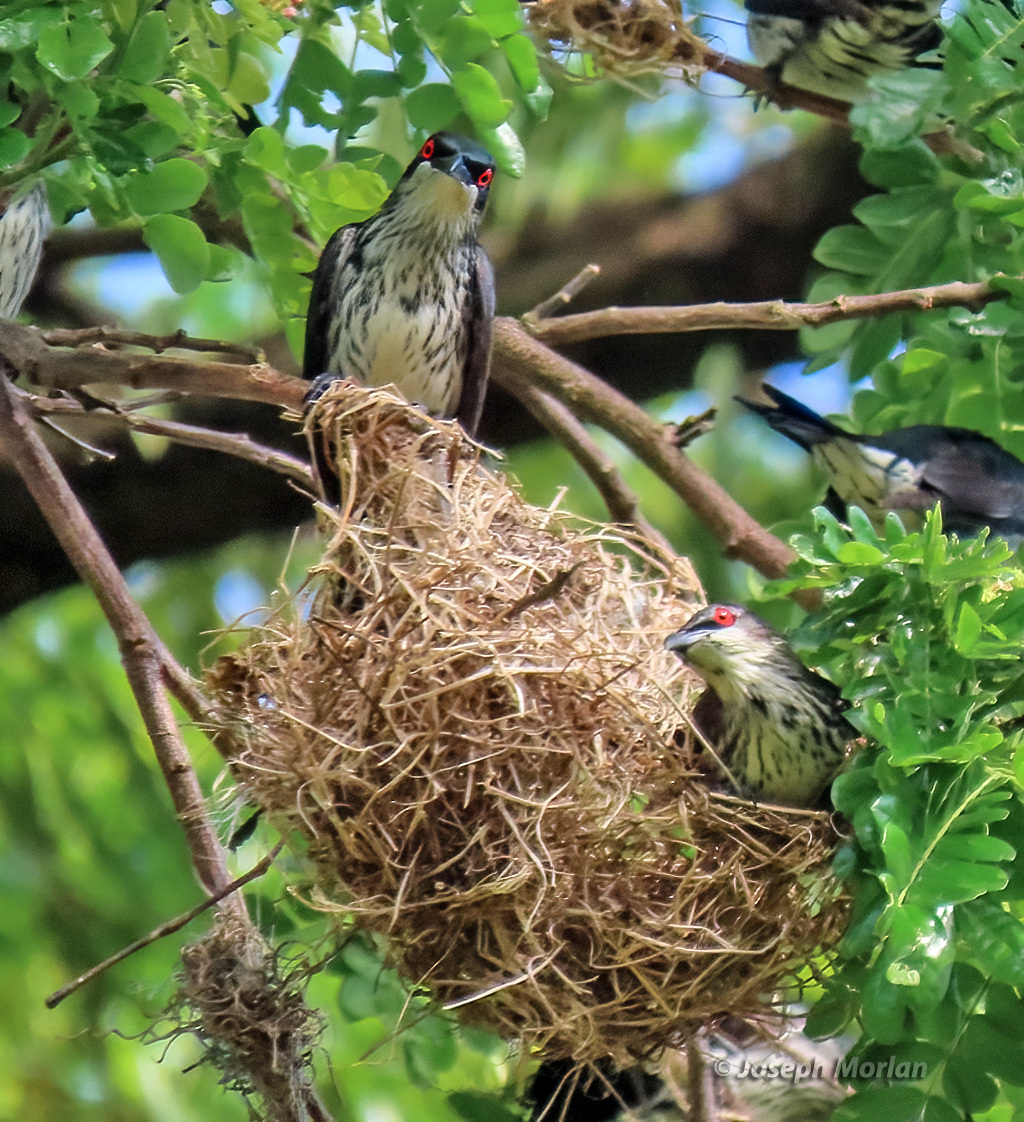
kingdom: Animalia
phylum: Chordata
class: Aves
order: Passeriformes
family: Sturnidae
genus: Aplonis
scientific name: Aplonis metallica
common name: Metallic starling
